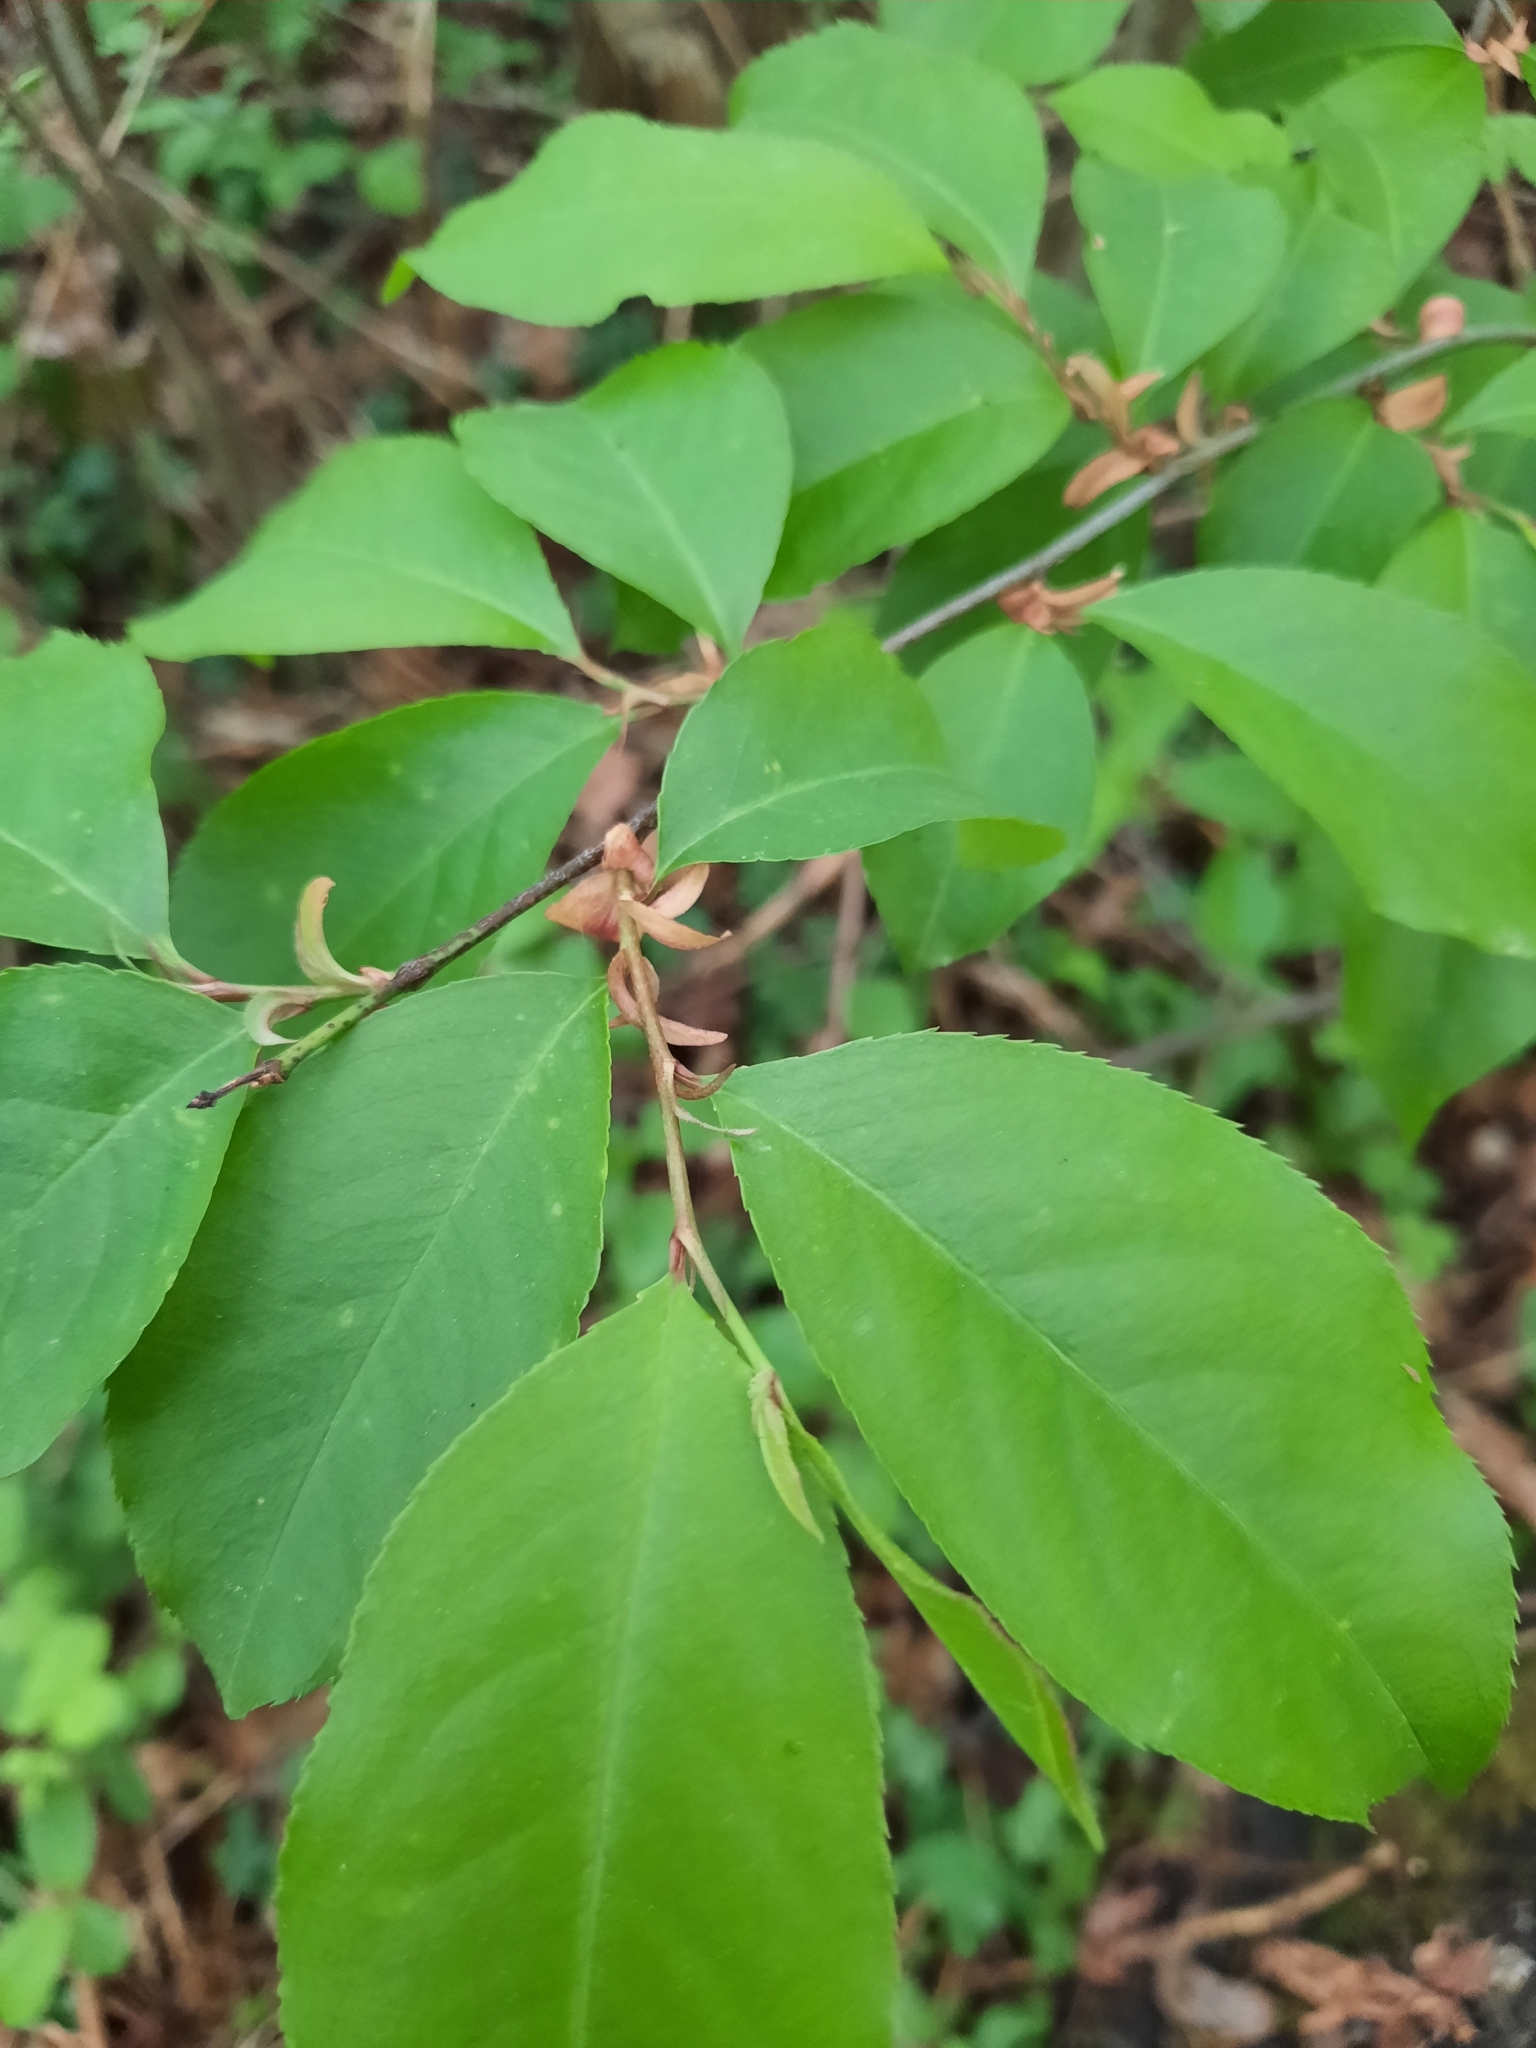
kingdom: Plantae
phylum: Tracheophyta
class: Magnoliopsida
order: Rosales
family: Rosaceae
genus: Prunus
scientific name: Prunus serotina
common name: Black cherry
